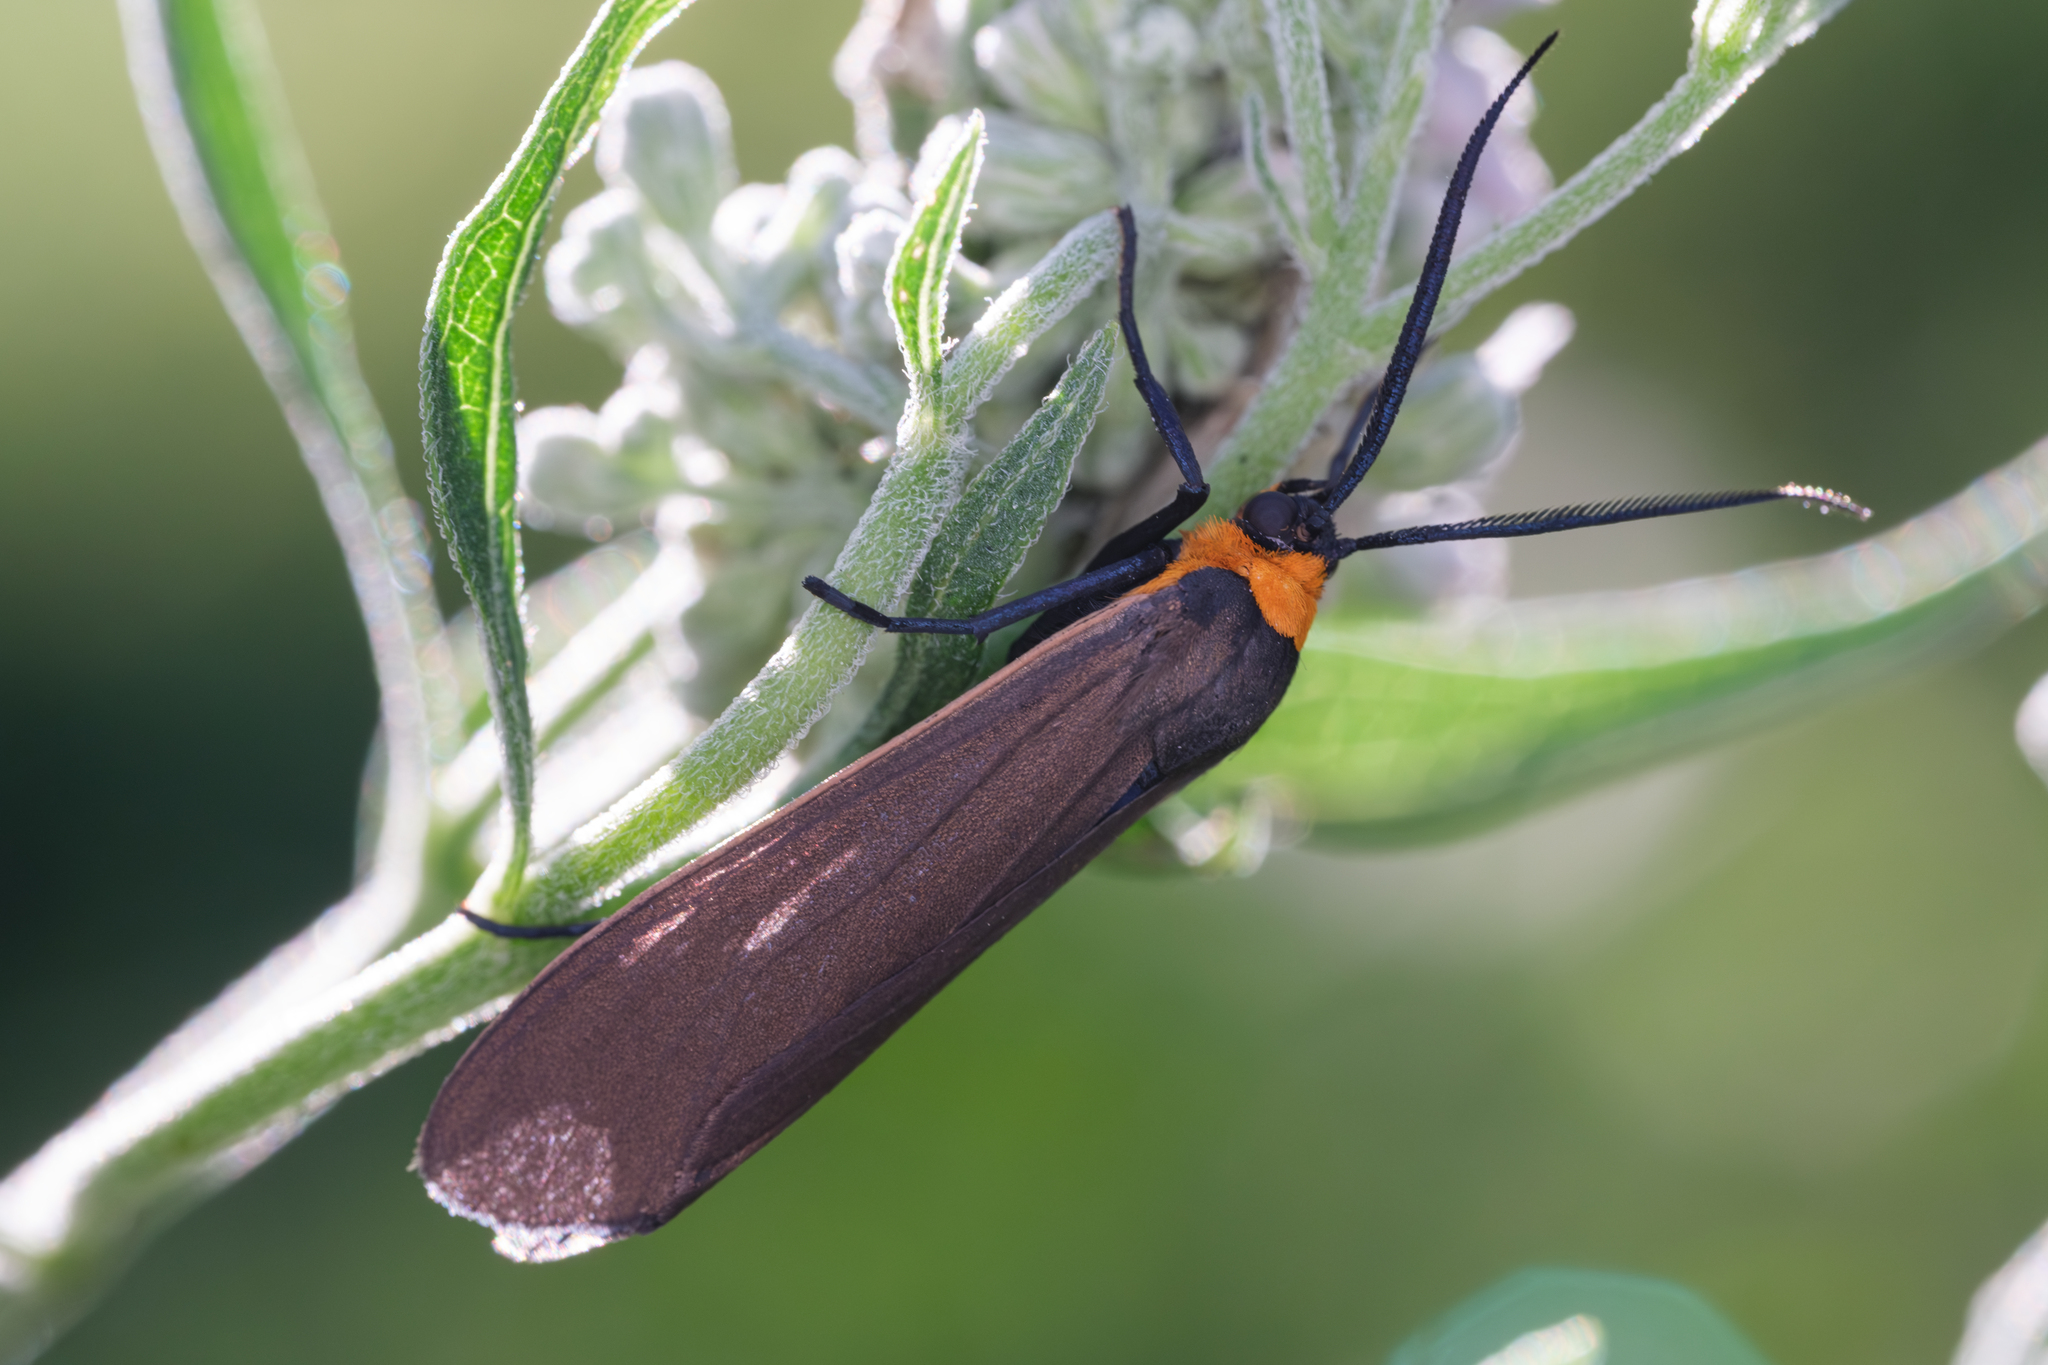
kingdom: Animalia
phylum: Arthropoda
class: Insecta
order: Lepidoptera
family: Erebidae
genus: Cisseps
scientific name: Cisseps fulvicollis
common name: Yellow-collared scape moth
